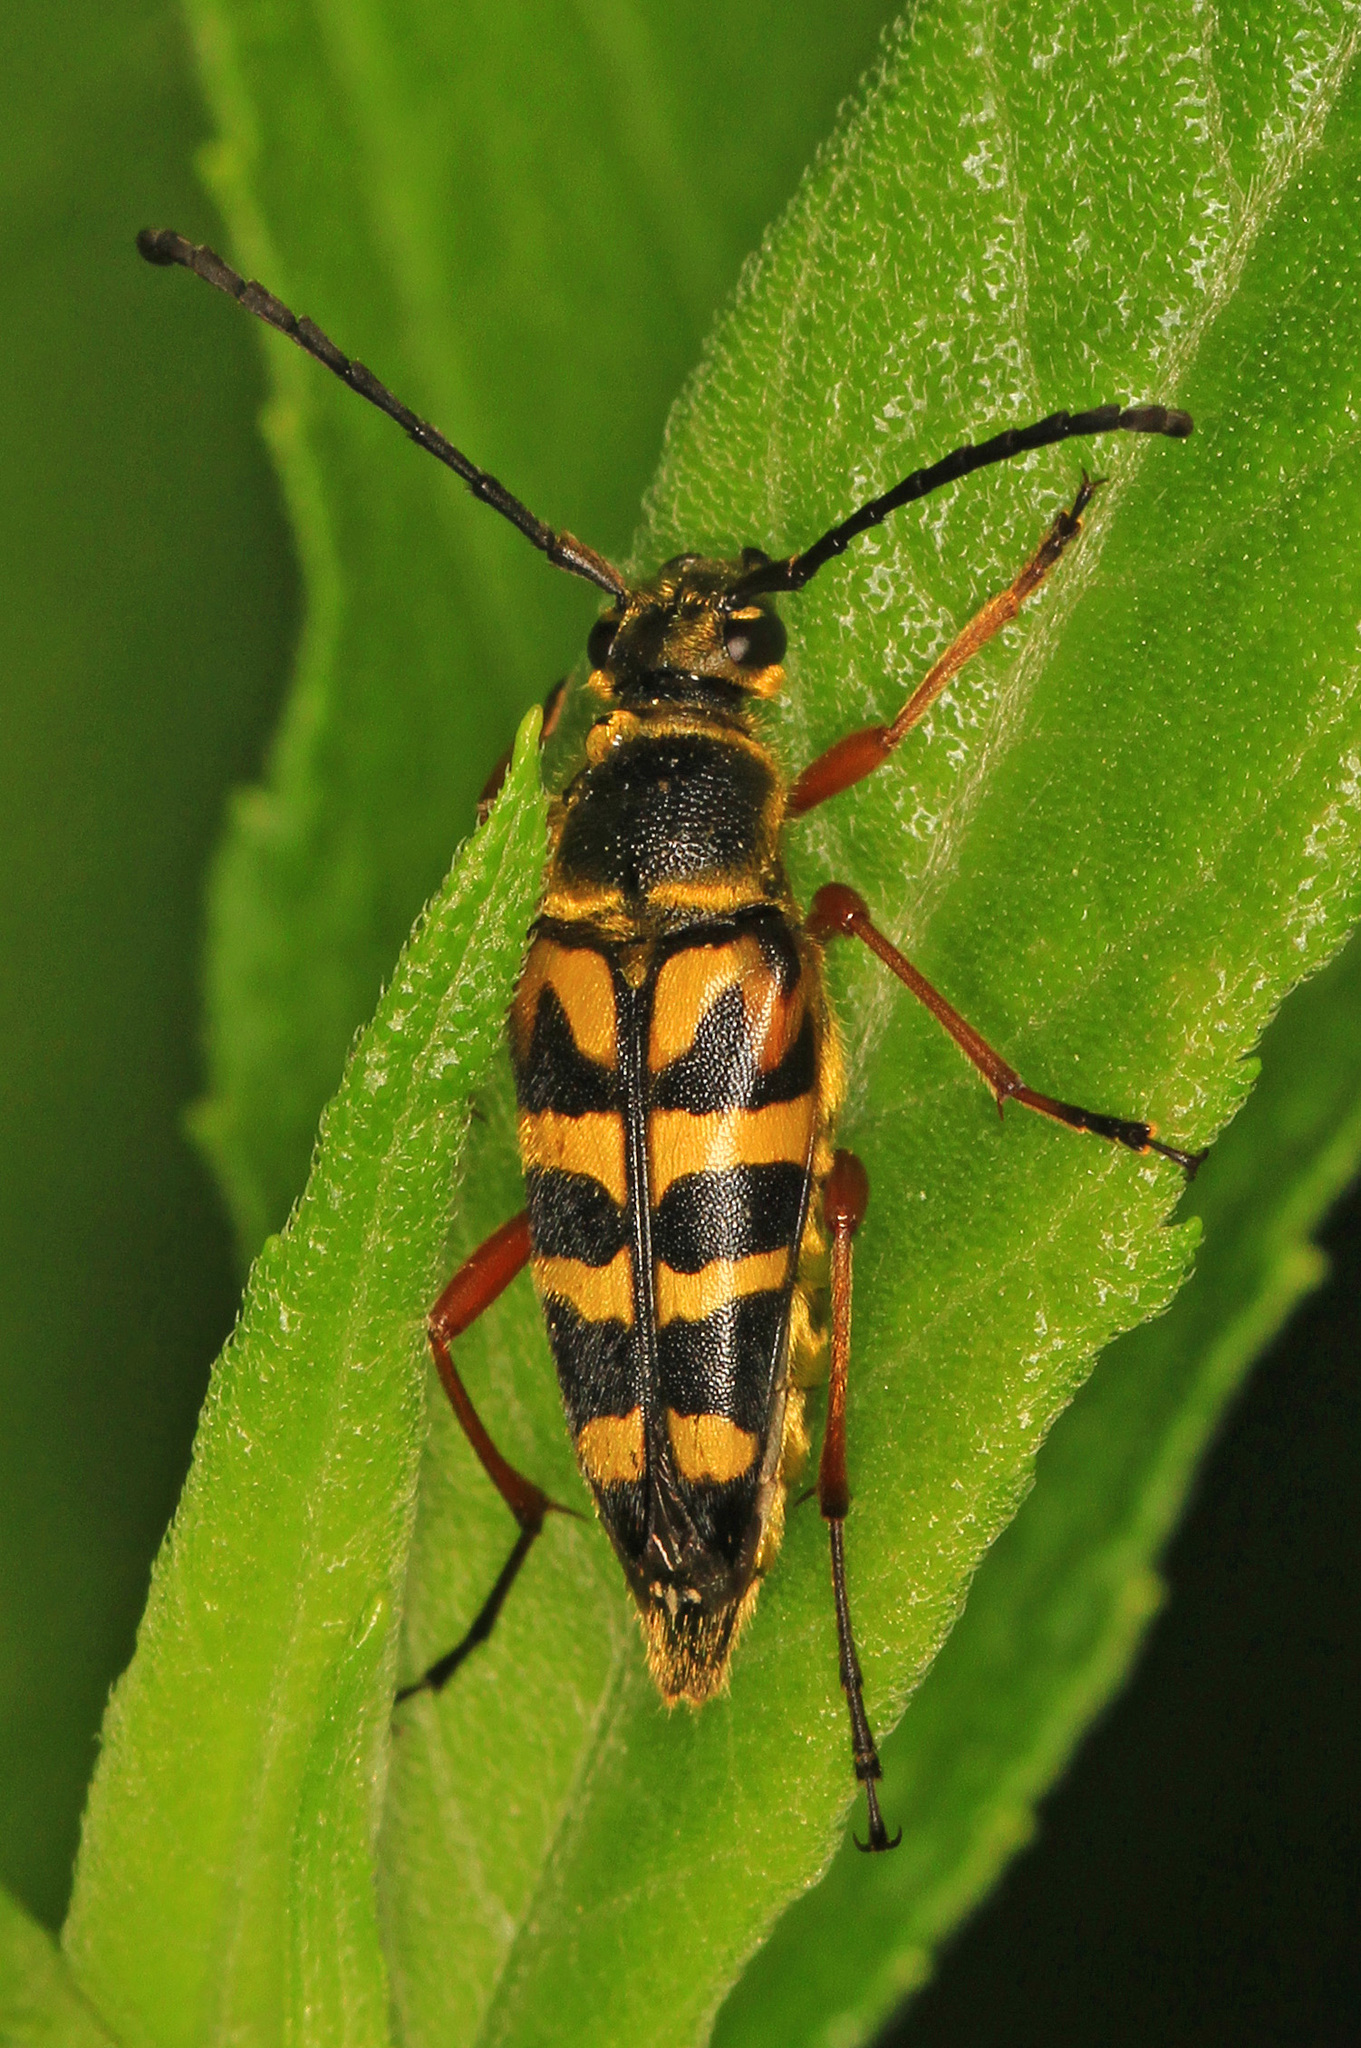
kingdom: Animalia
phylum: Arthropoda
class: Insecta
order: Coleoptera
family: Cerambycidae
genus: Typocerus
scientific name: Typocerus zebra
